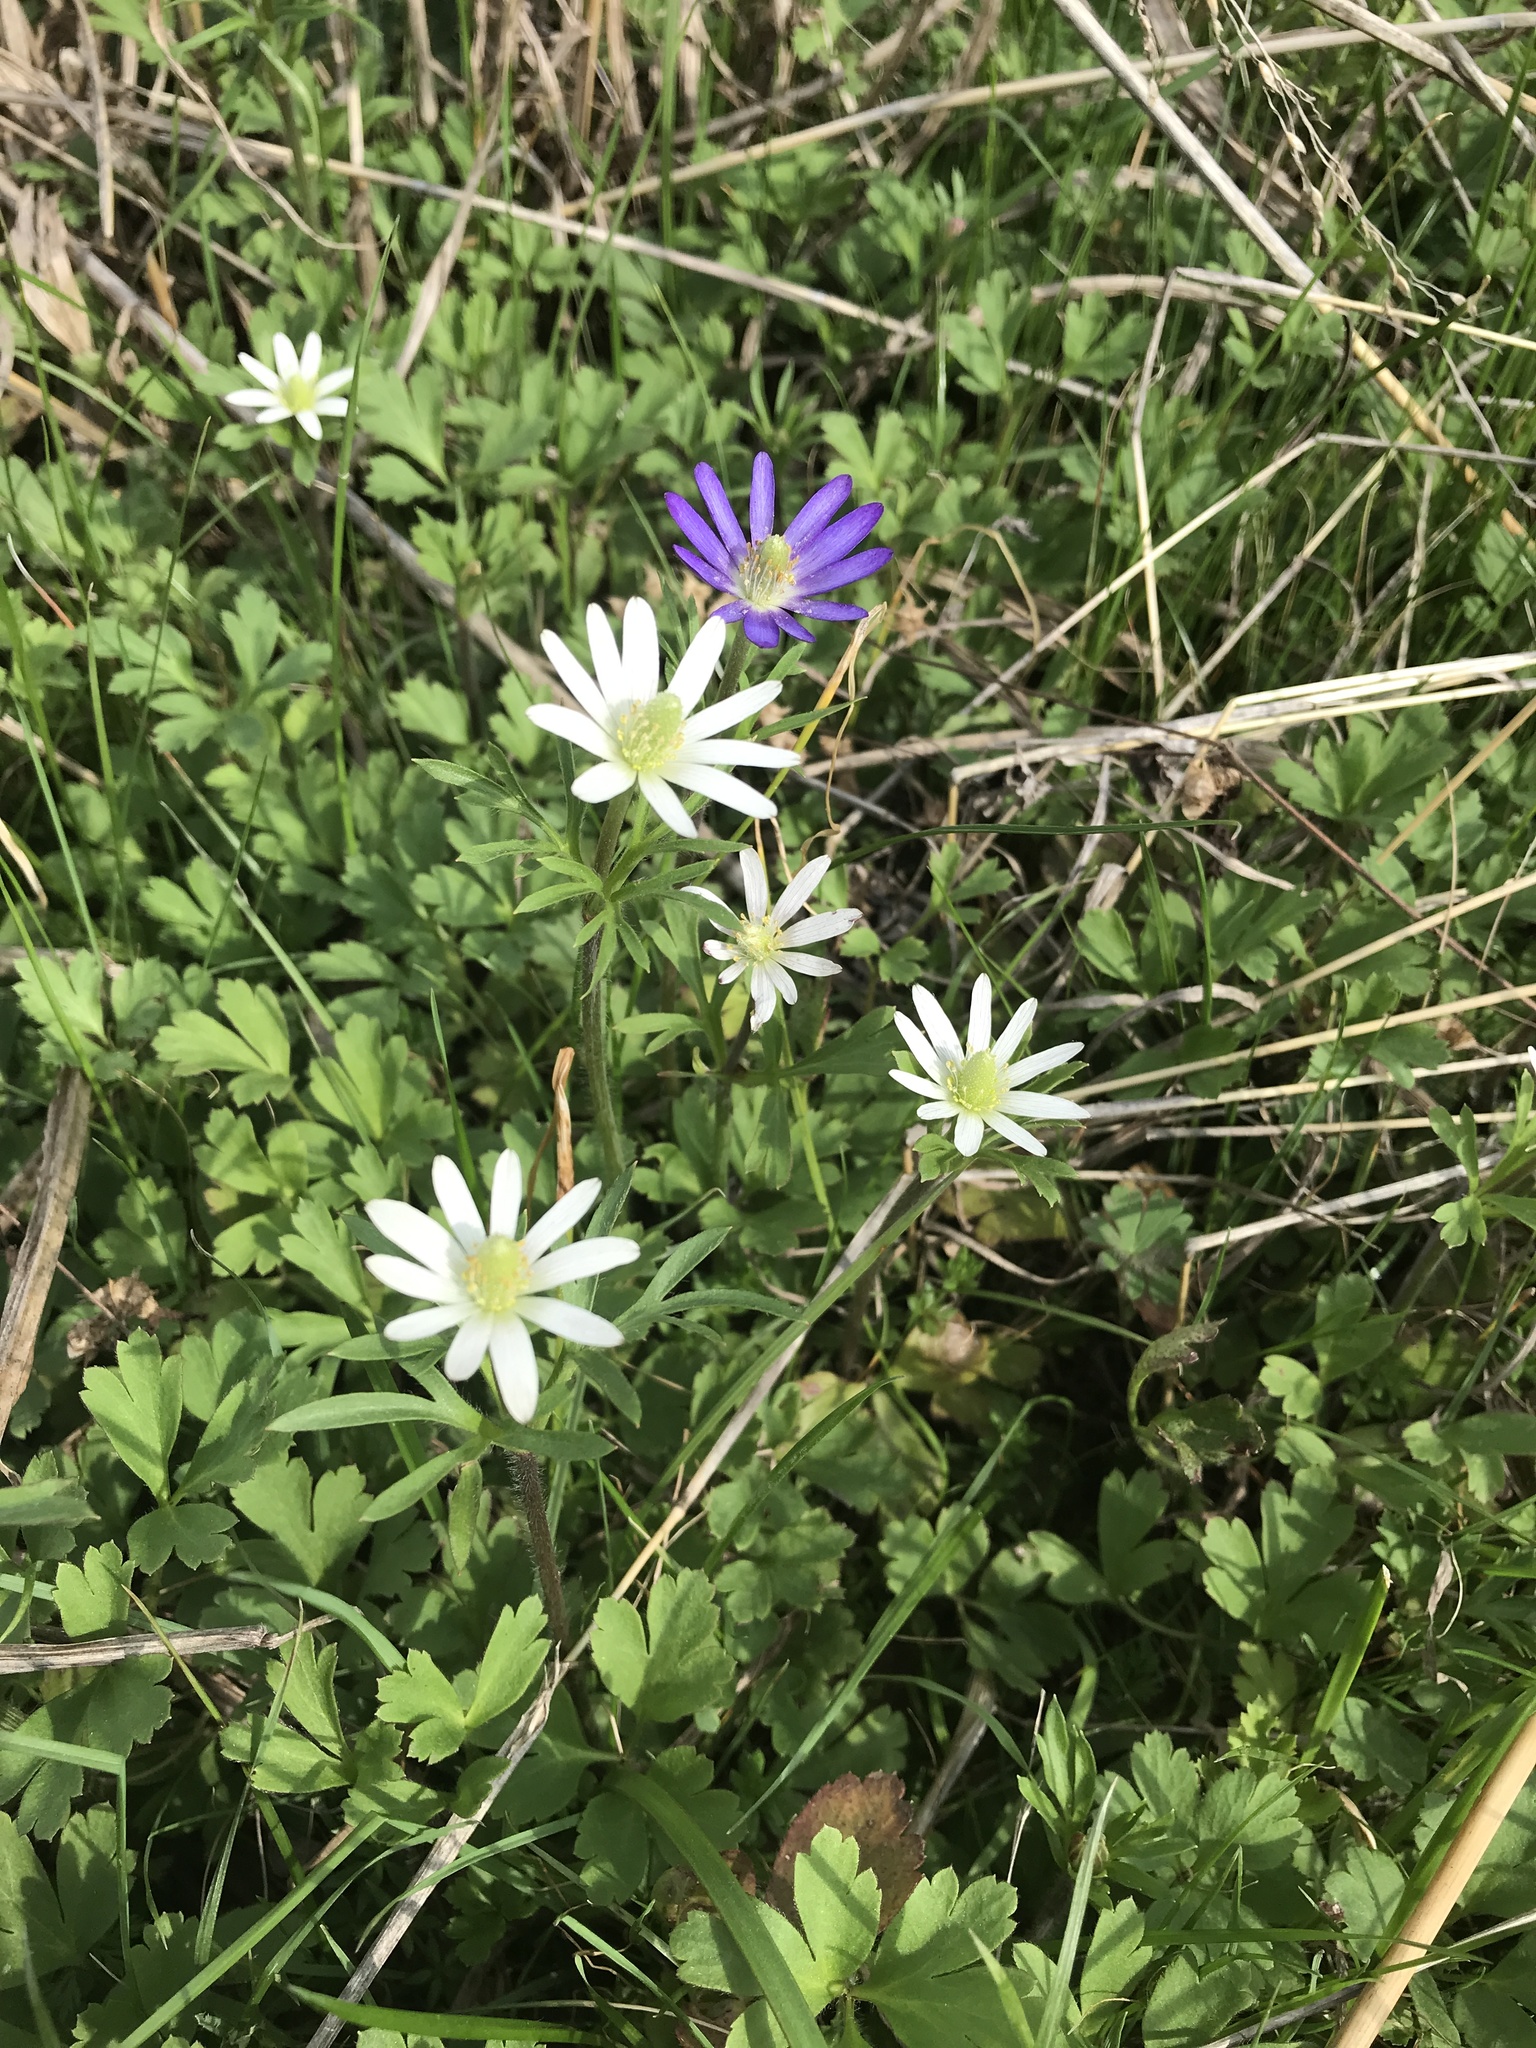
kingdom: Plantae
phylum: Tracheophyta
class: Magnoliopsida
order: Ranunculales
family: Ranunculaceae
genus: Anemone
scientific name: Anemone berlandieri
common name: Ten-petal anemone
